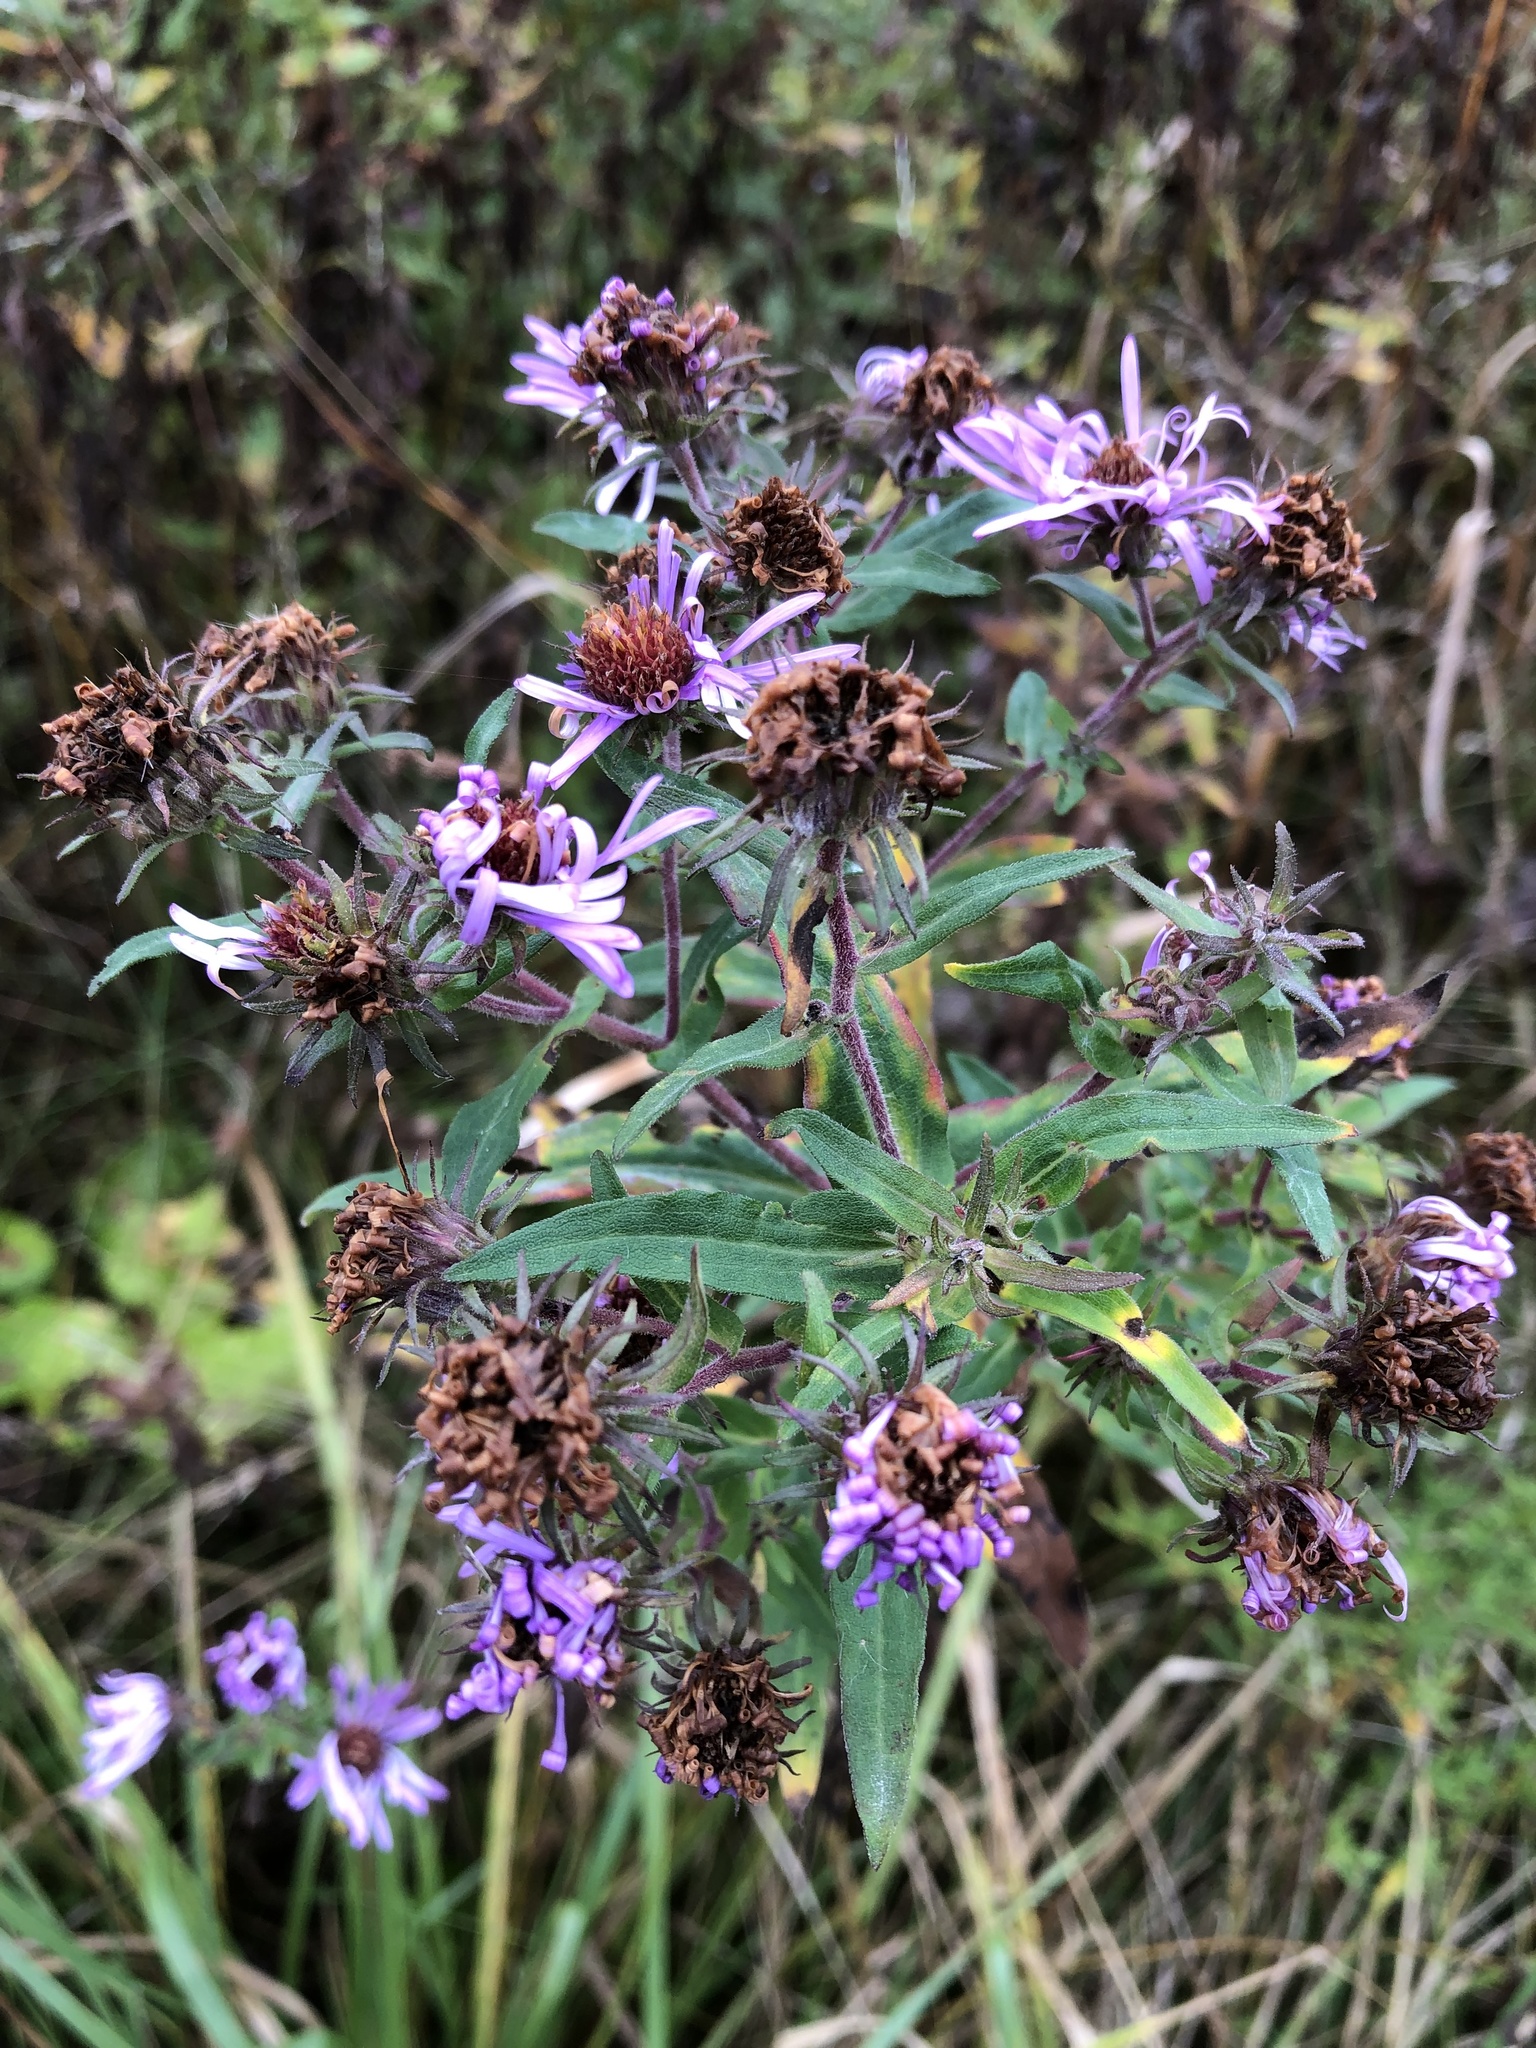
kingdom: Plantae
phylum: Tracheophyta
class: Magnoliopsida
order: Asterales
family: Asteraceae
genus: Symphyotrichum
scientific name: Symphyotrichum novae-angliae
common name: Michaelmas daisy
